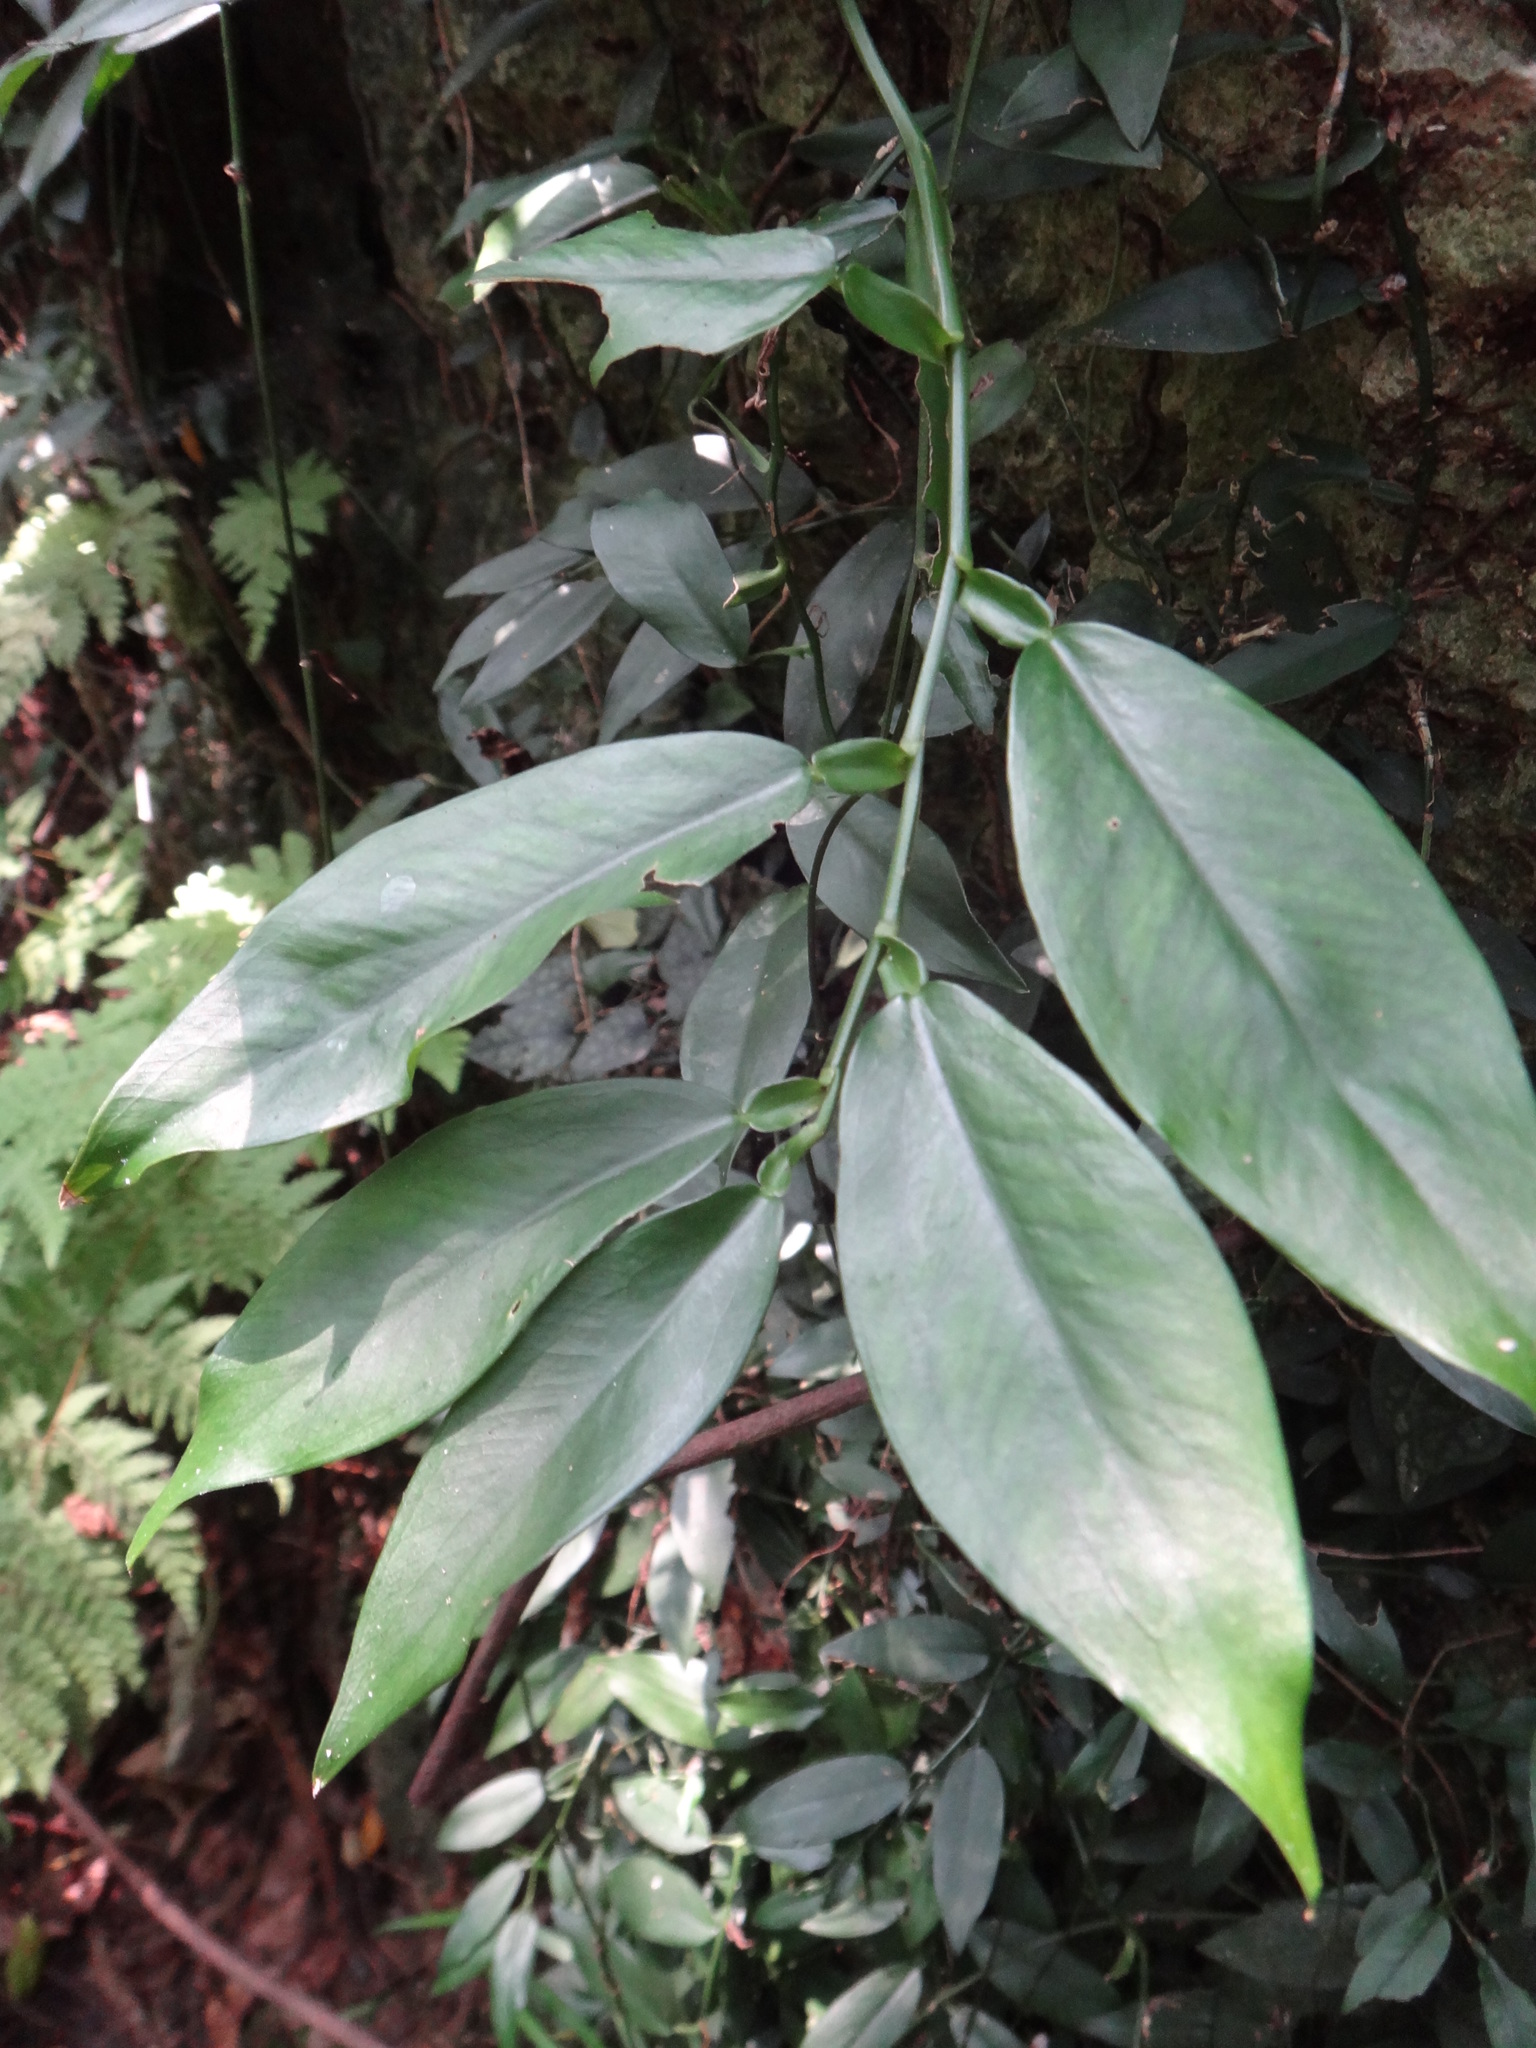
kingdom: Plantae
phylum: Tracheophyta
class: Liliopsida
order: Alismatales
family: Araceae
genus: Pothos
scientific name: Pothos chinensis
